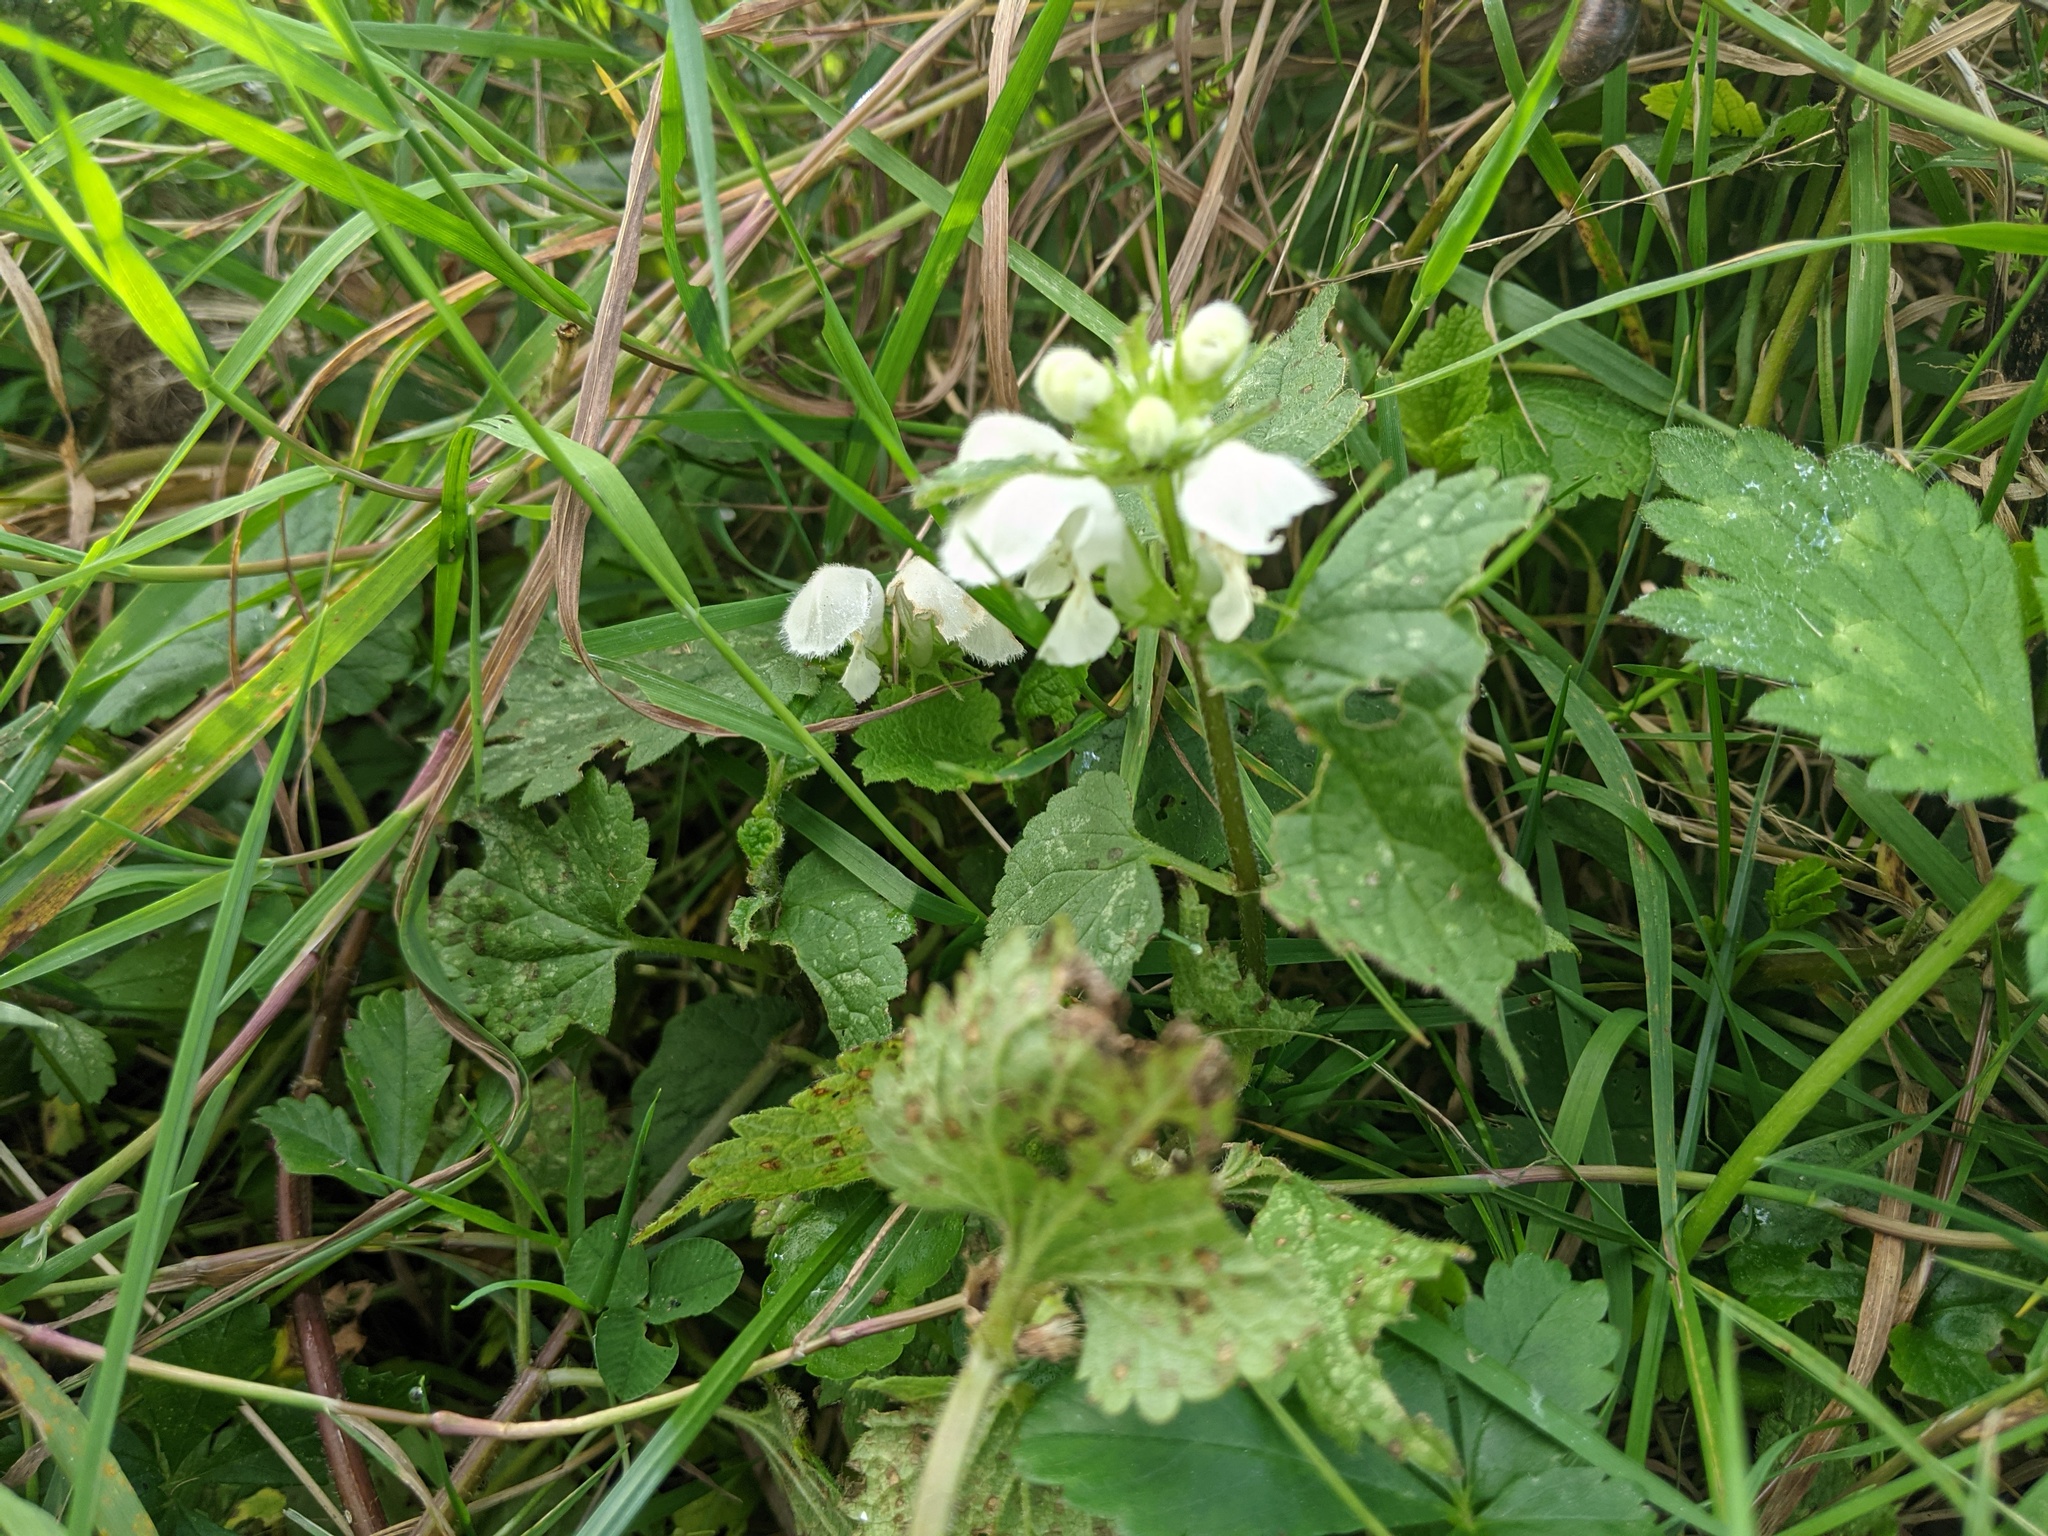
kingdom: Plantae
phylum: Tracheophyta
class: Magnoliopsida
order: Lamiales
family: Lamiaceae
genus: Lamium
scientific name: Lamium album
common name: White dead-nettle
